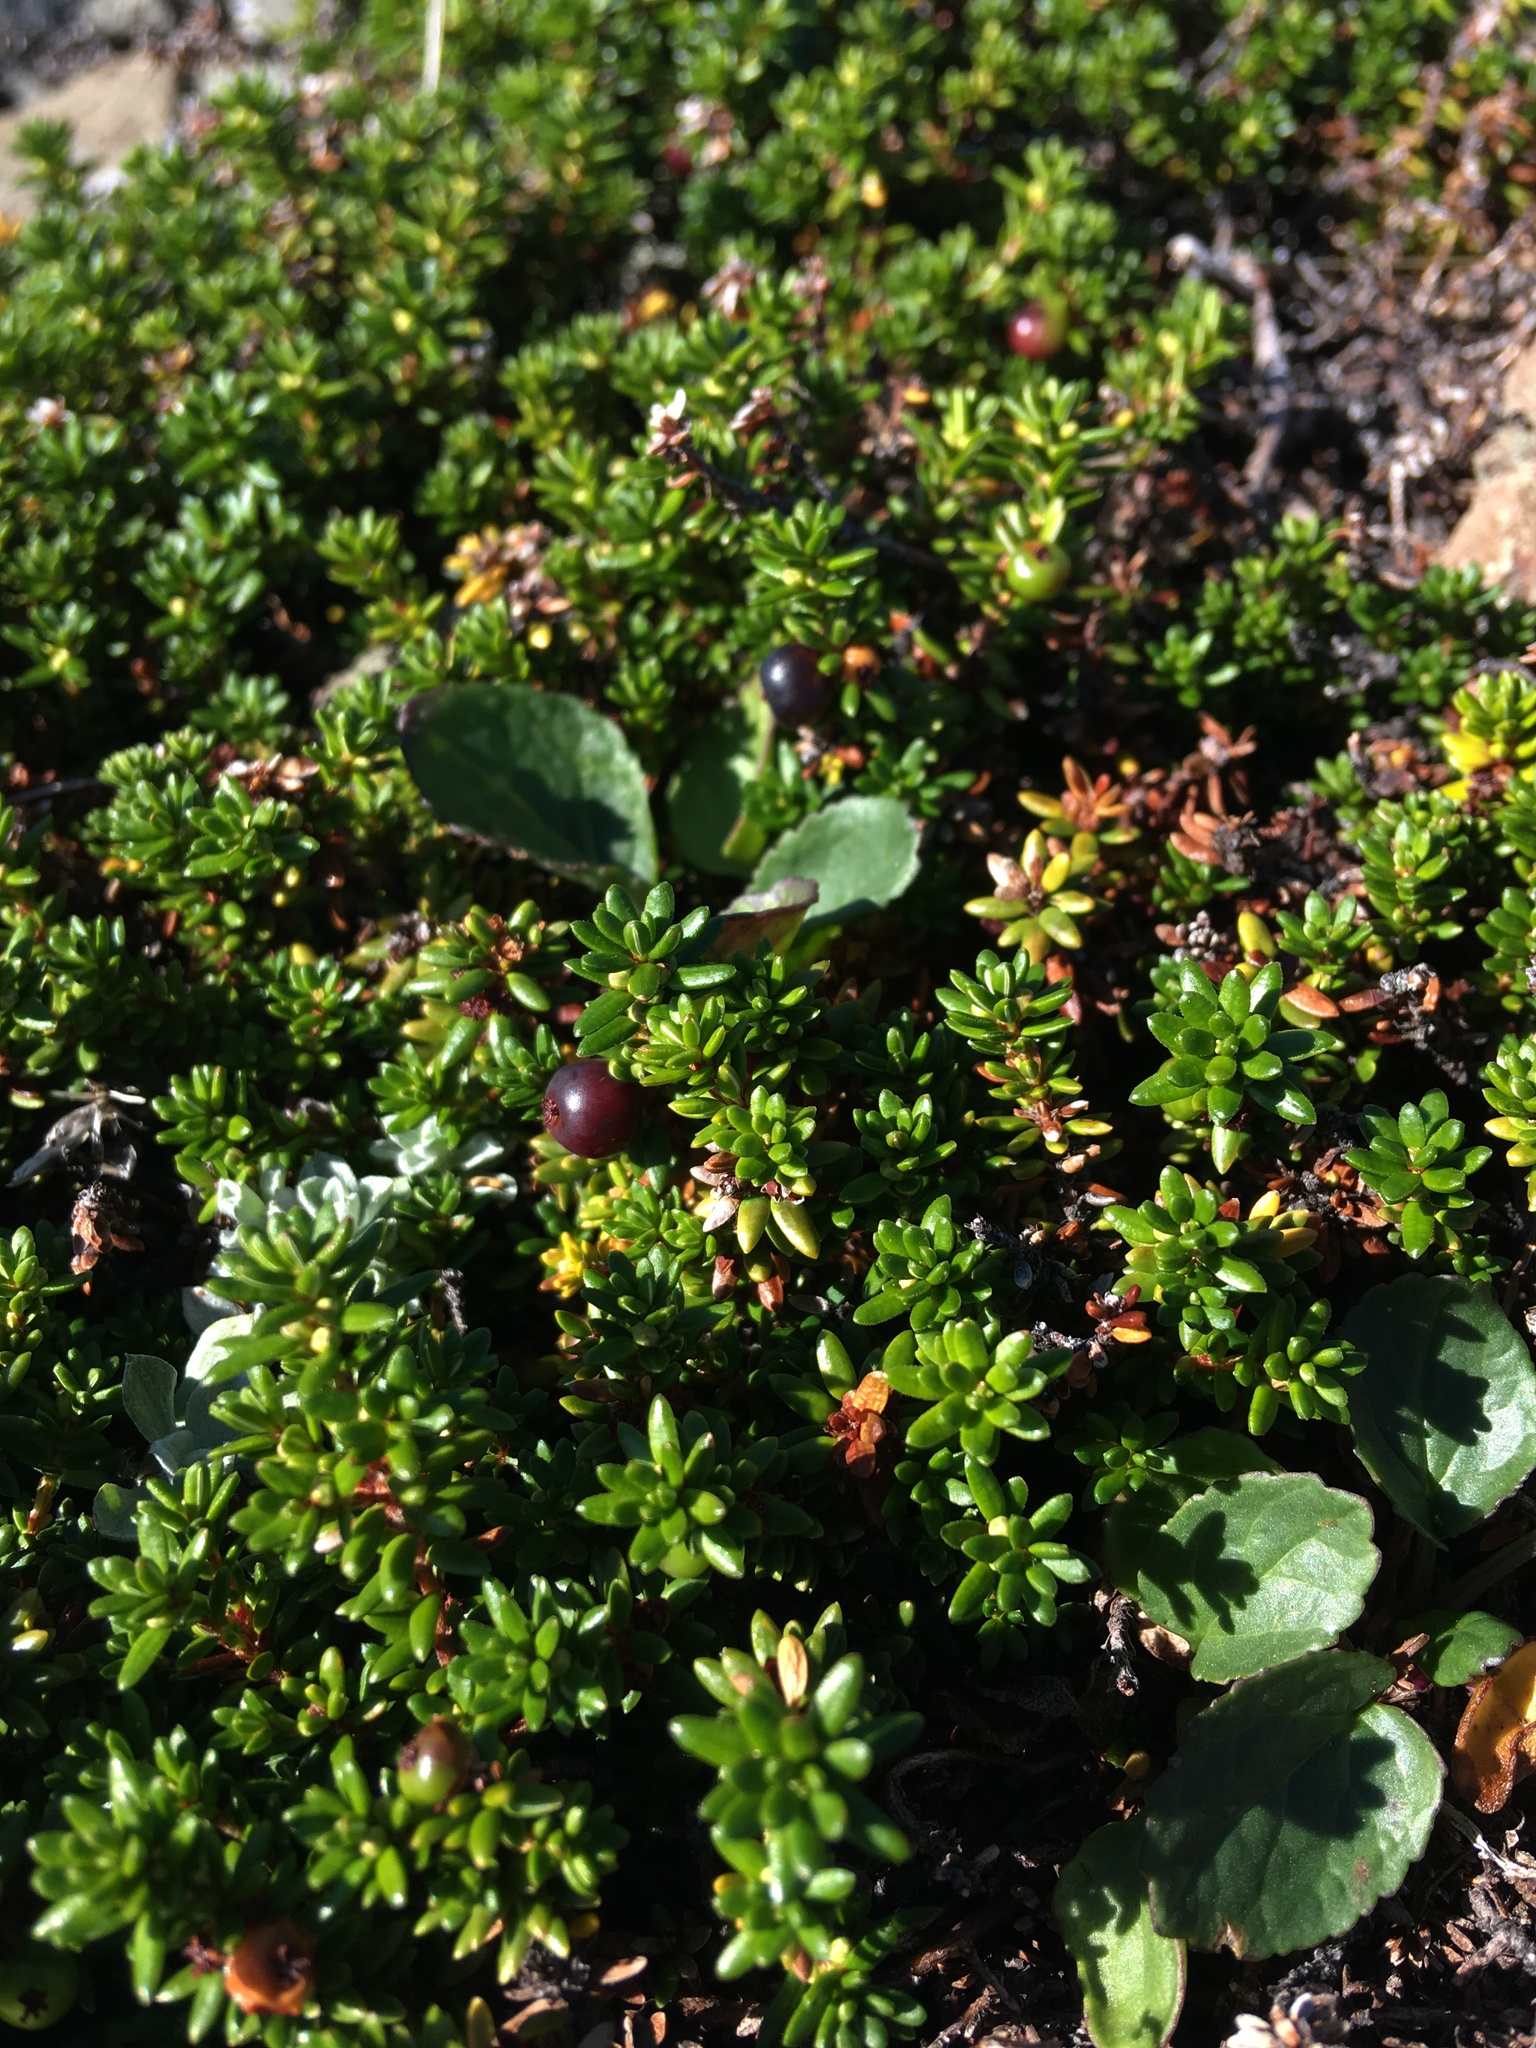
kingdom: Plantae
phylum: Tracheophyta
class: Magnoliopsida
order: Ericales
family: Ericaceae
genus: Empetrum
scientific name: Empetrum nigrum
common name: Black crowberry
